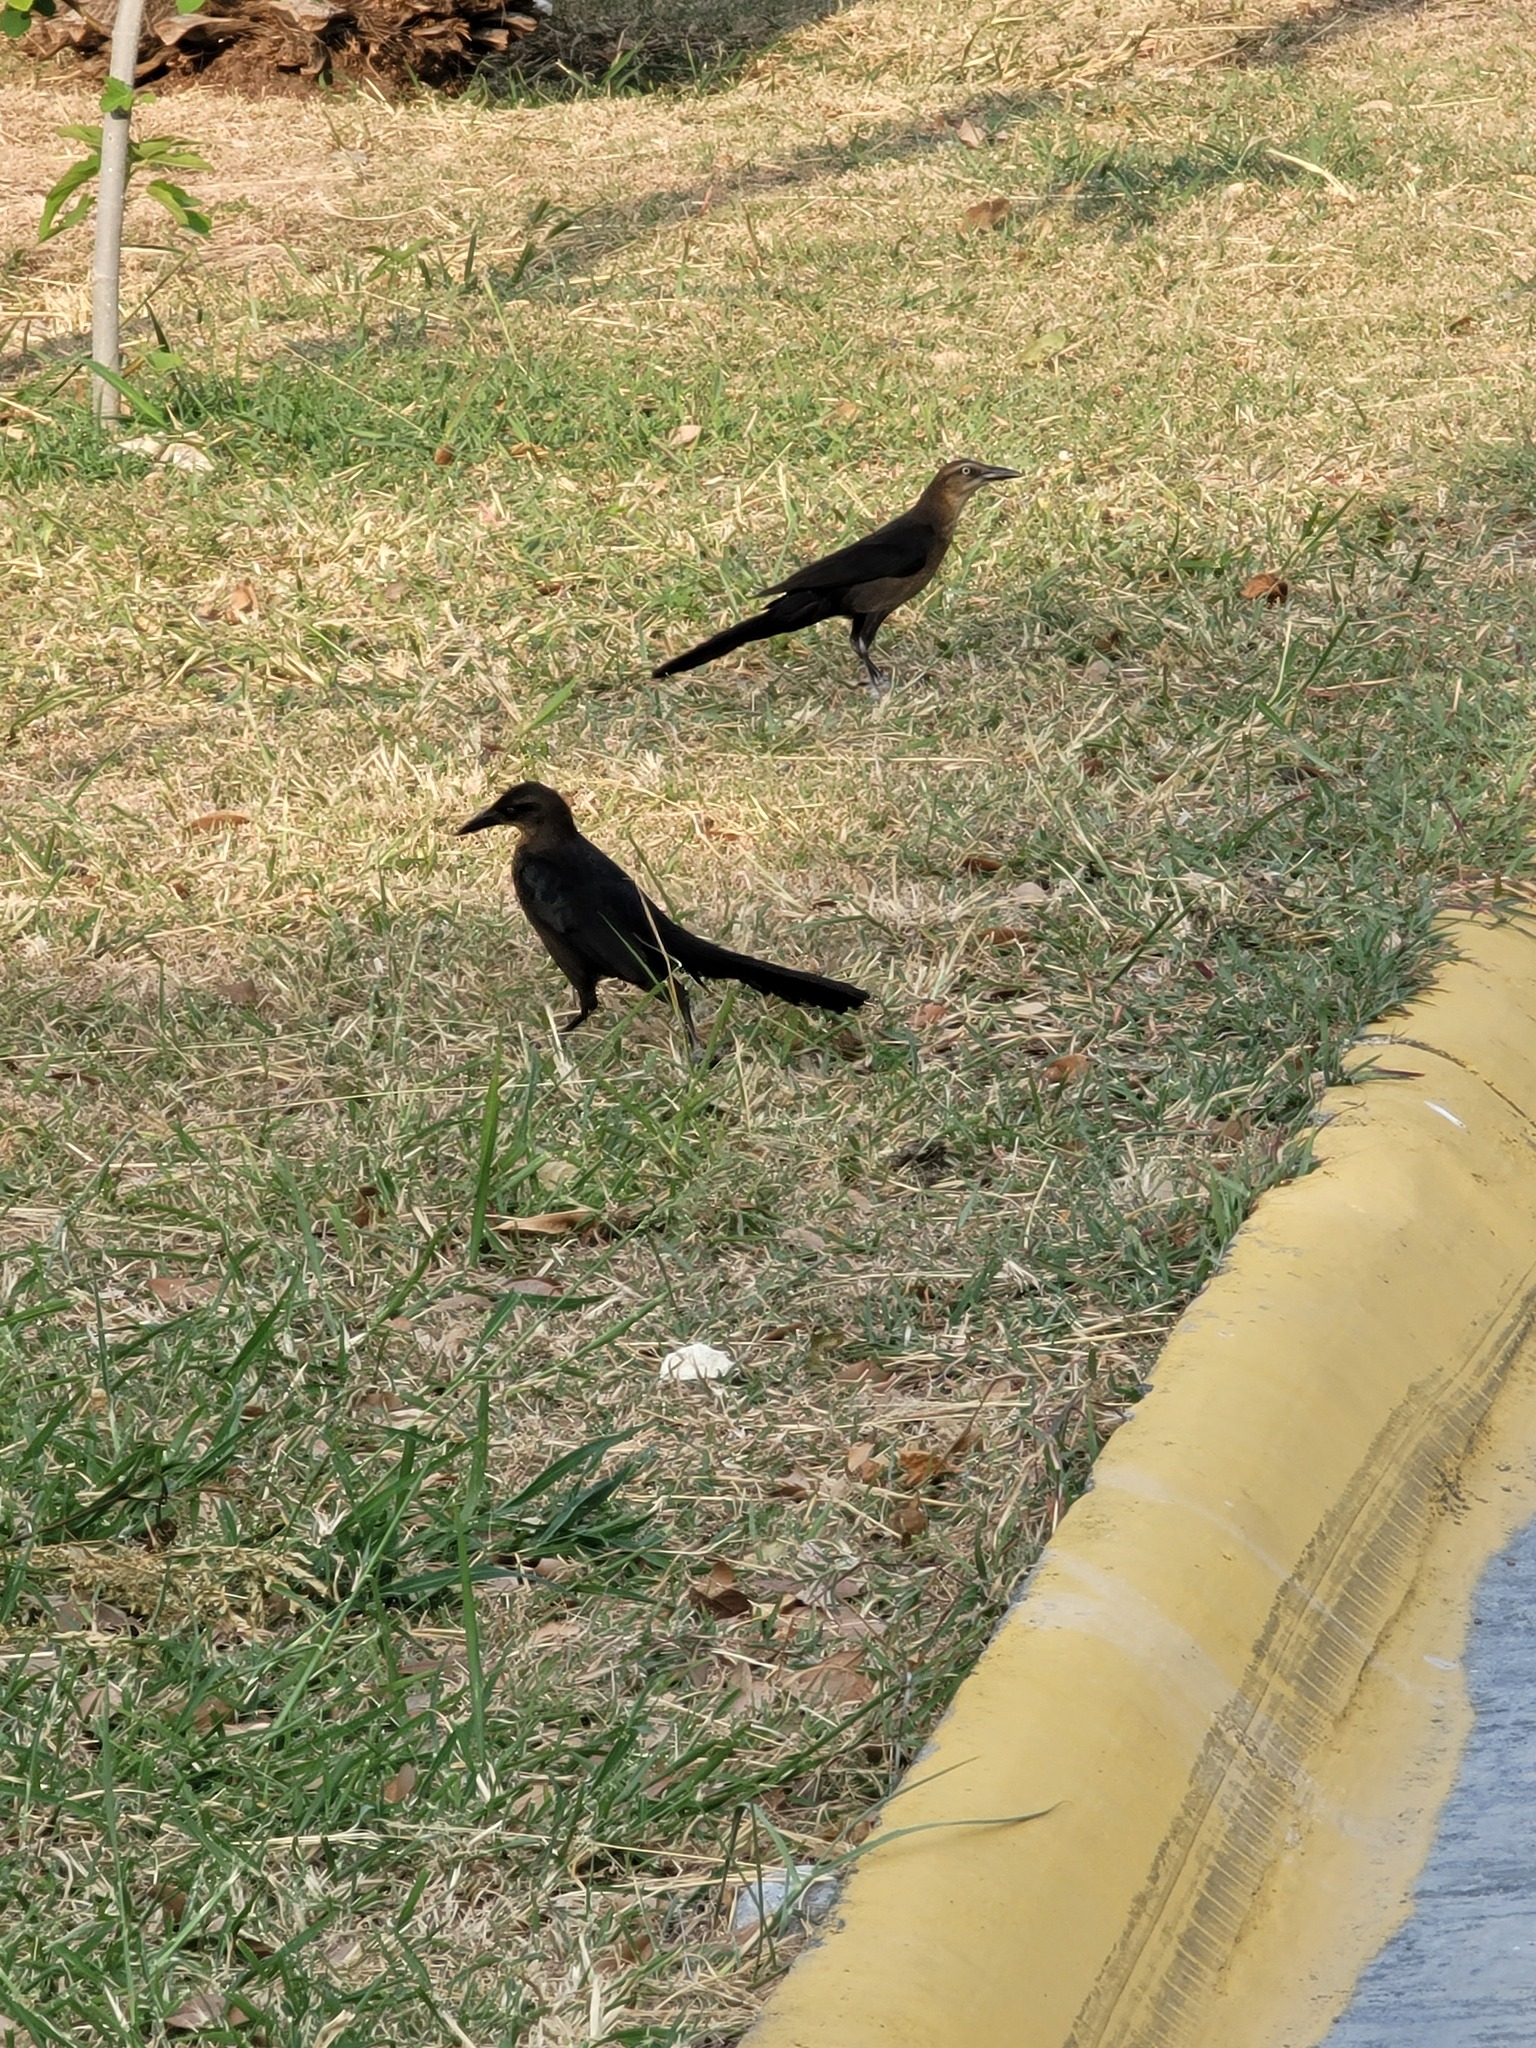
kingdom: Animalia
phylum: Chordata
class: Aves
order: Passeriformes
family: Icteridae
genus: Quiscalus
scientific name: Quiscalus mexicanus
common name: Great-tailed grackle
